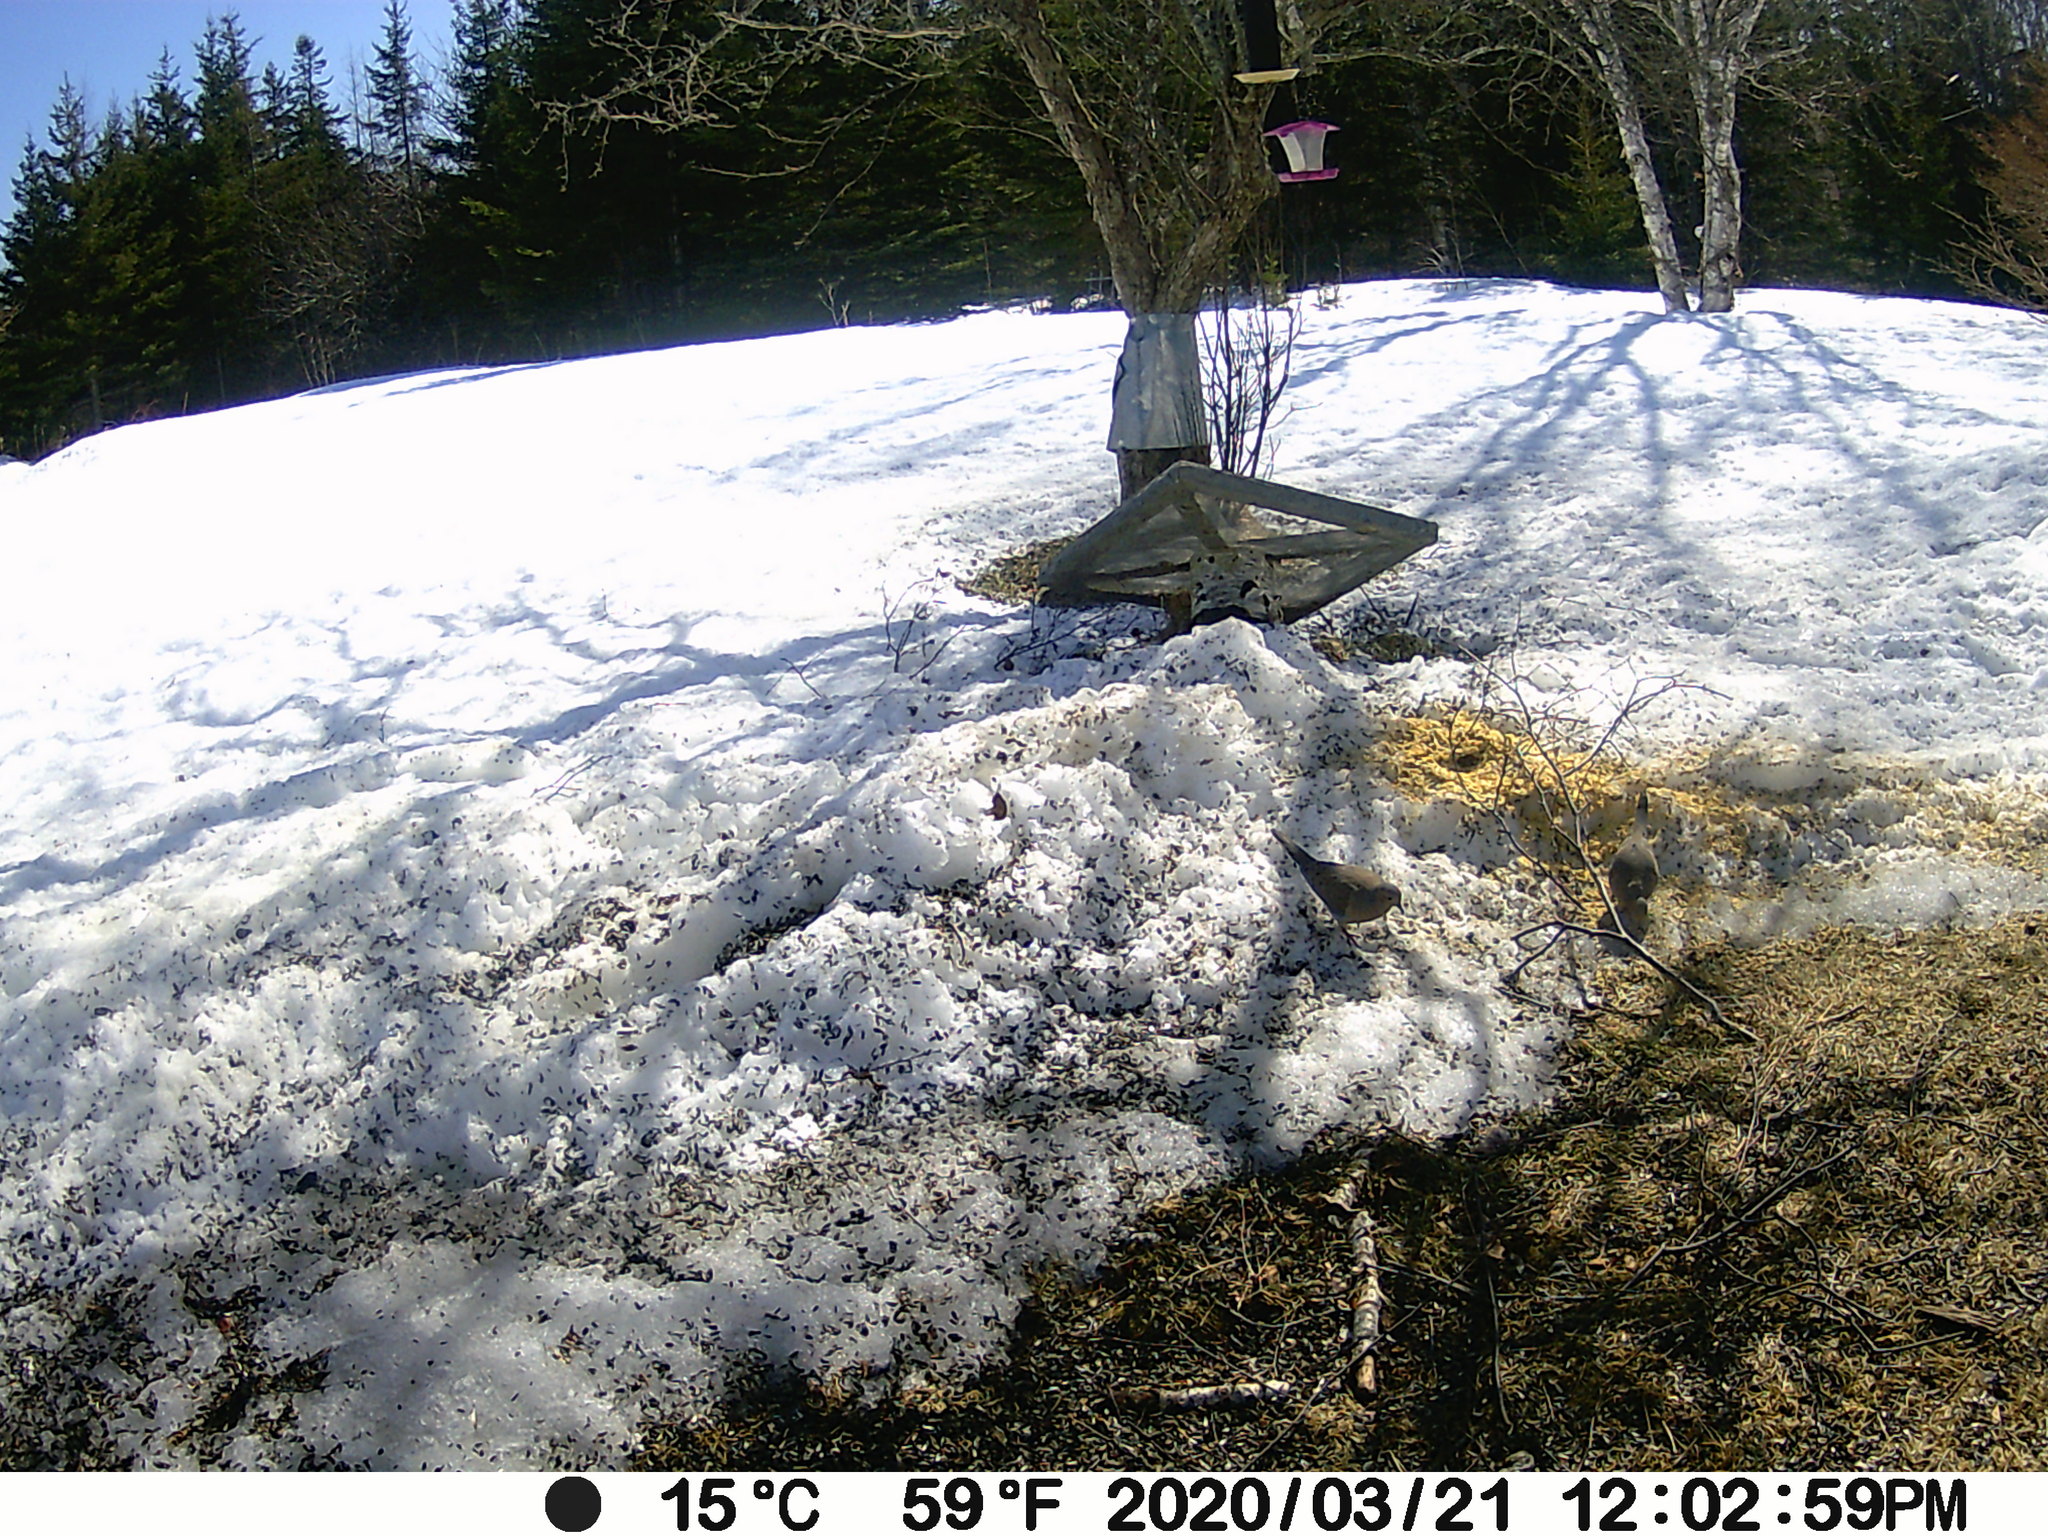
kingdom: Animalia
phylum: Chordata
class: Aves
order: Columbiformes
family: Columbidae
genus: Zenaida
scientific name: Zenaida macroura
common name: Mourning dove
